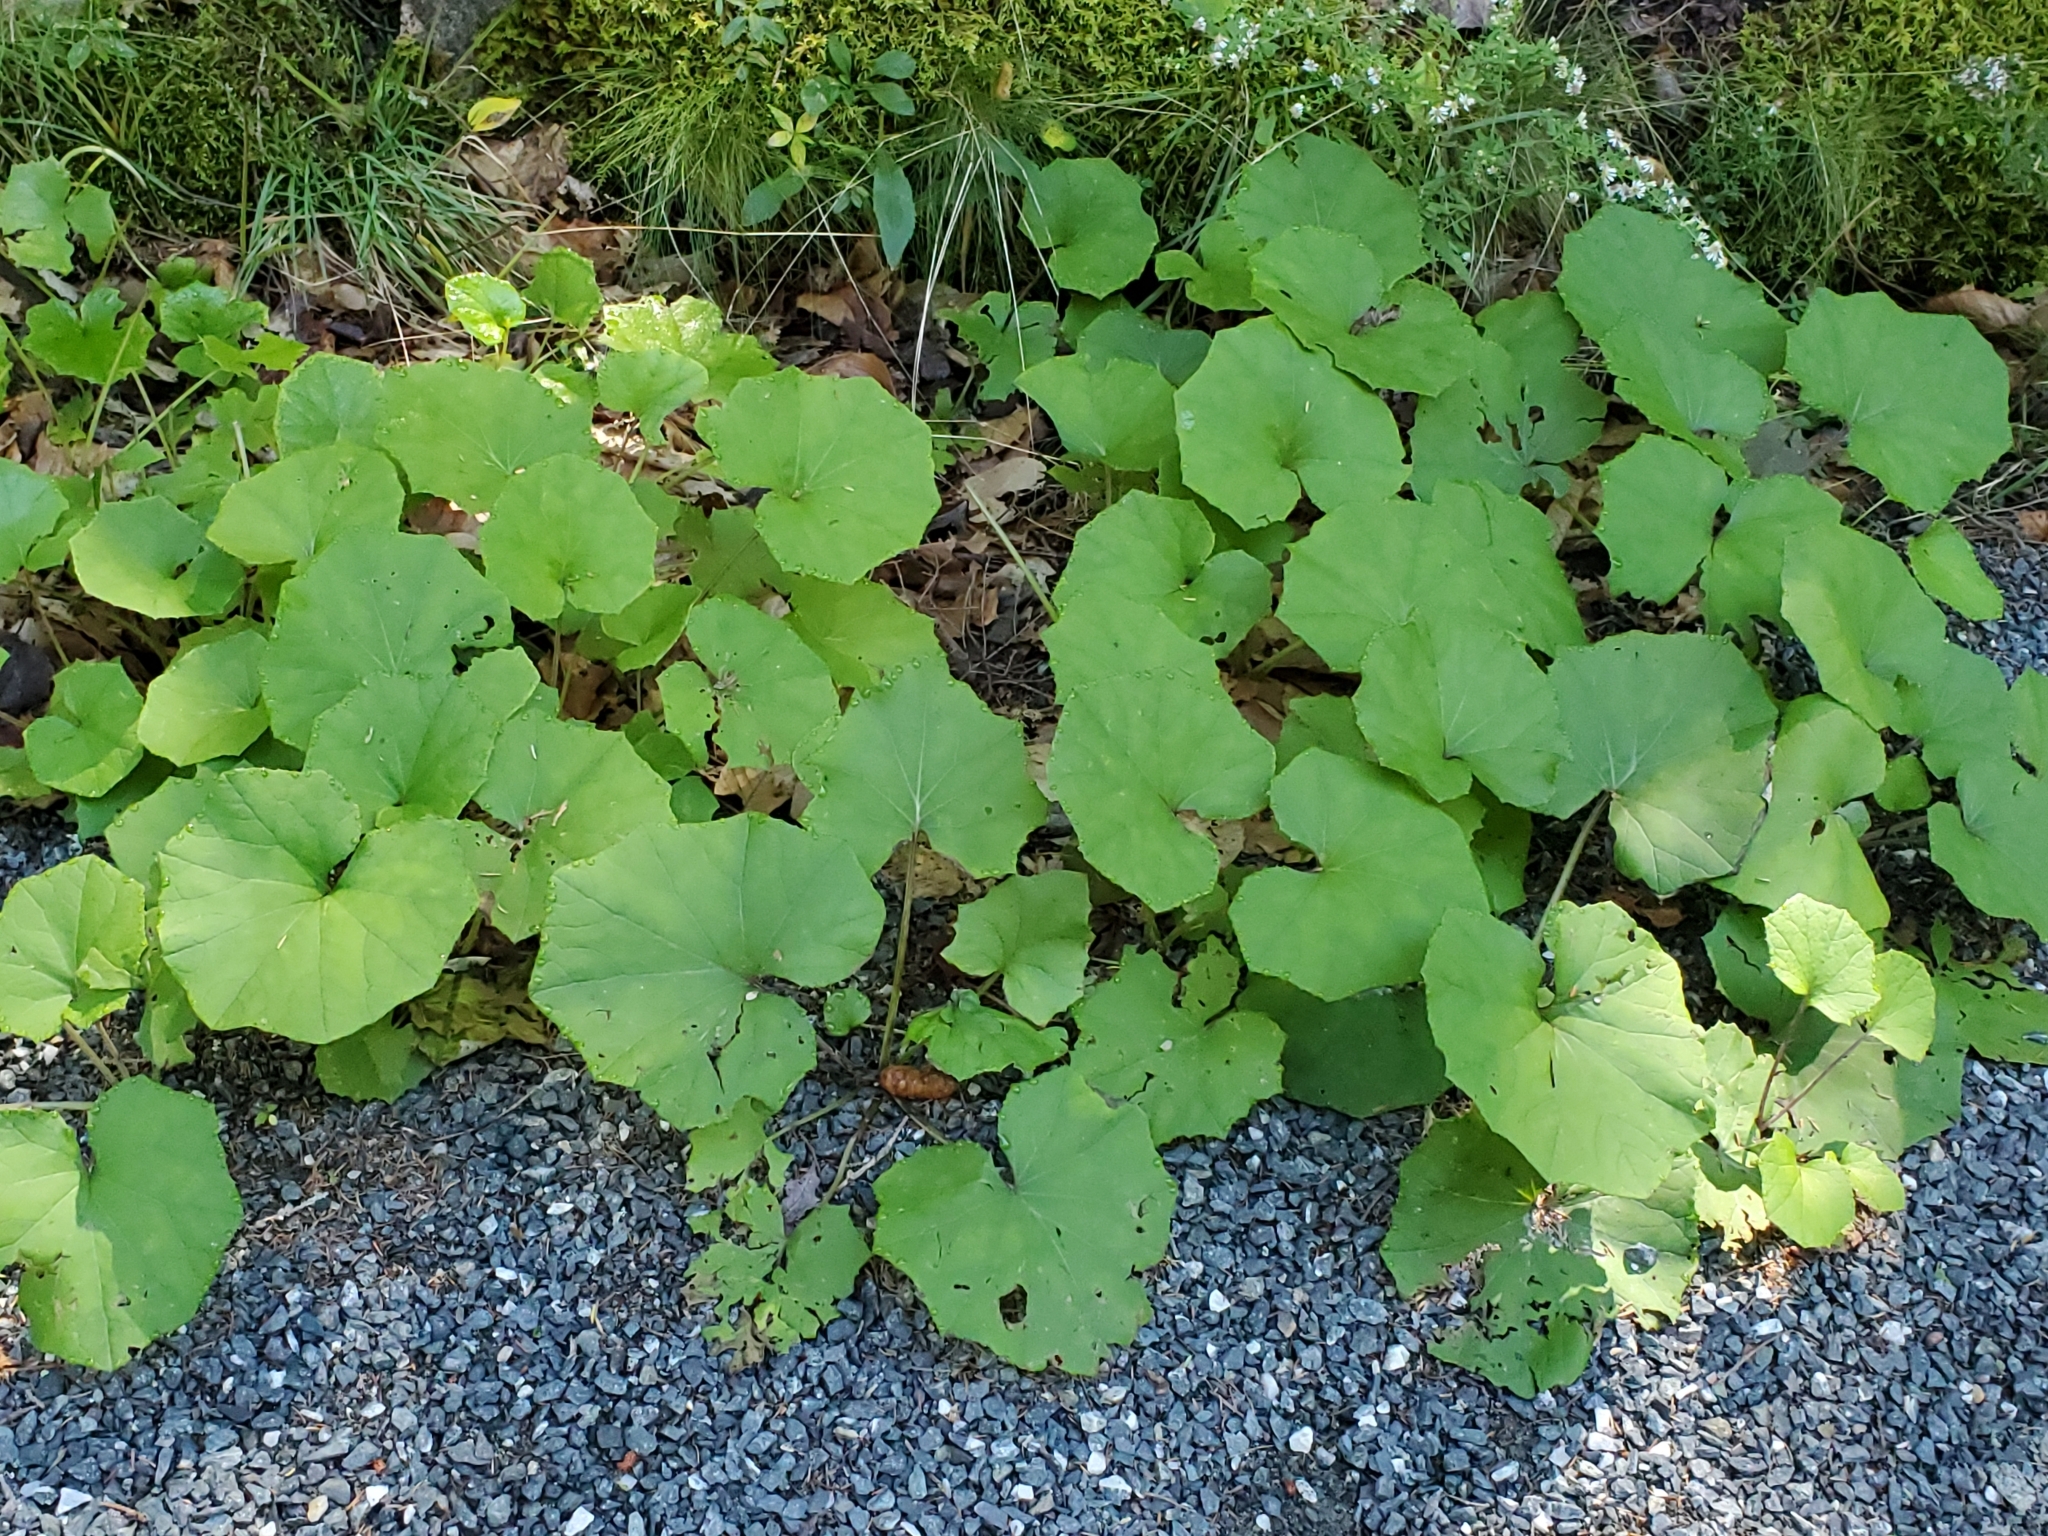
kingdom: Plantae
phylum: Tracheophyta
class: Magnoliopsida
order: Asterales
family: Asteraceae
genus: Tussilago
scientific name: Tussilago farfara
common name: Coltsfoot
